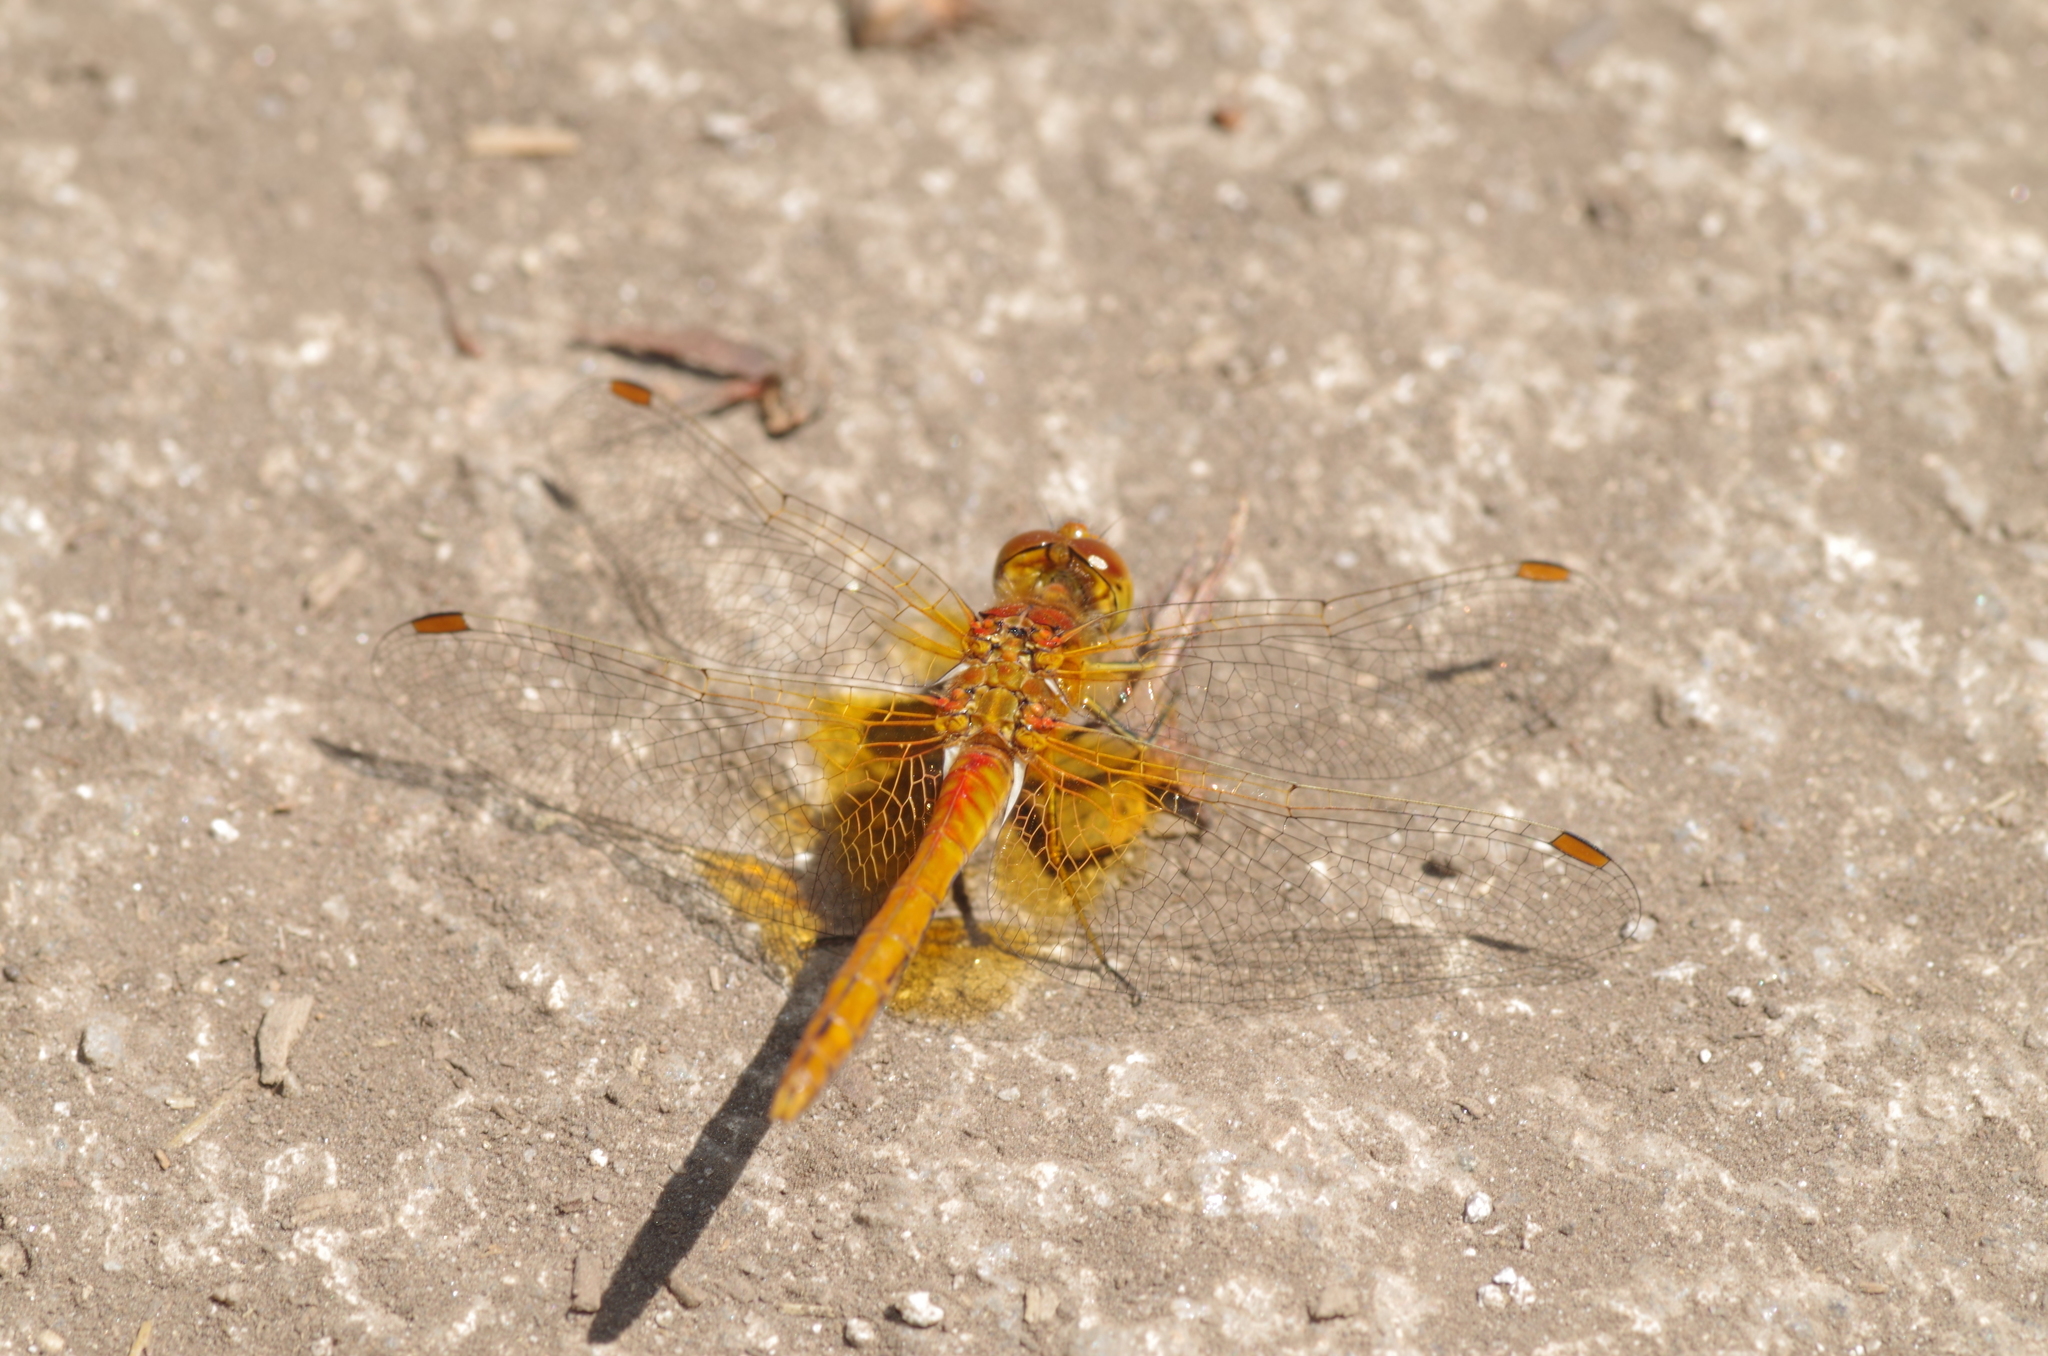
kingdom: Animalia
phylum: Arthropoda
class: Insecta
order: Odonata
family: Libellulidae
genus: Sympetrum
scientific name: Sympetrum flaveolum
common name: Yellow-winged darter
